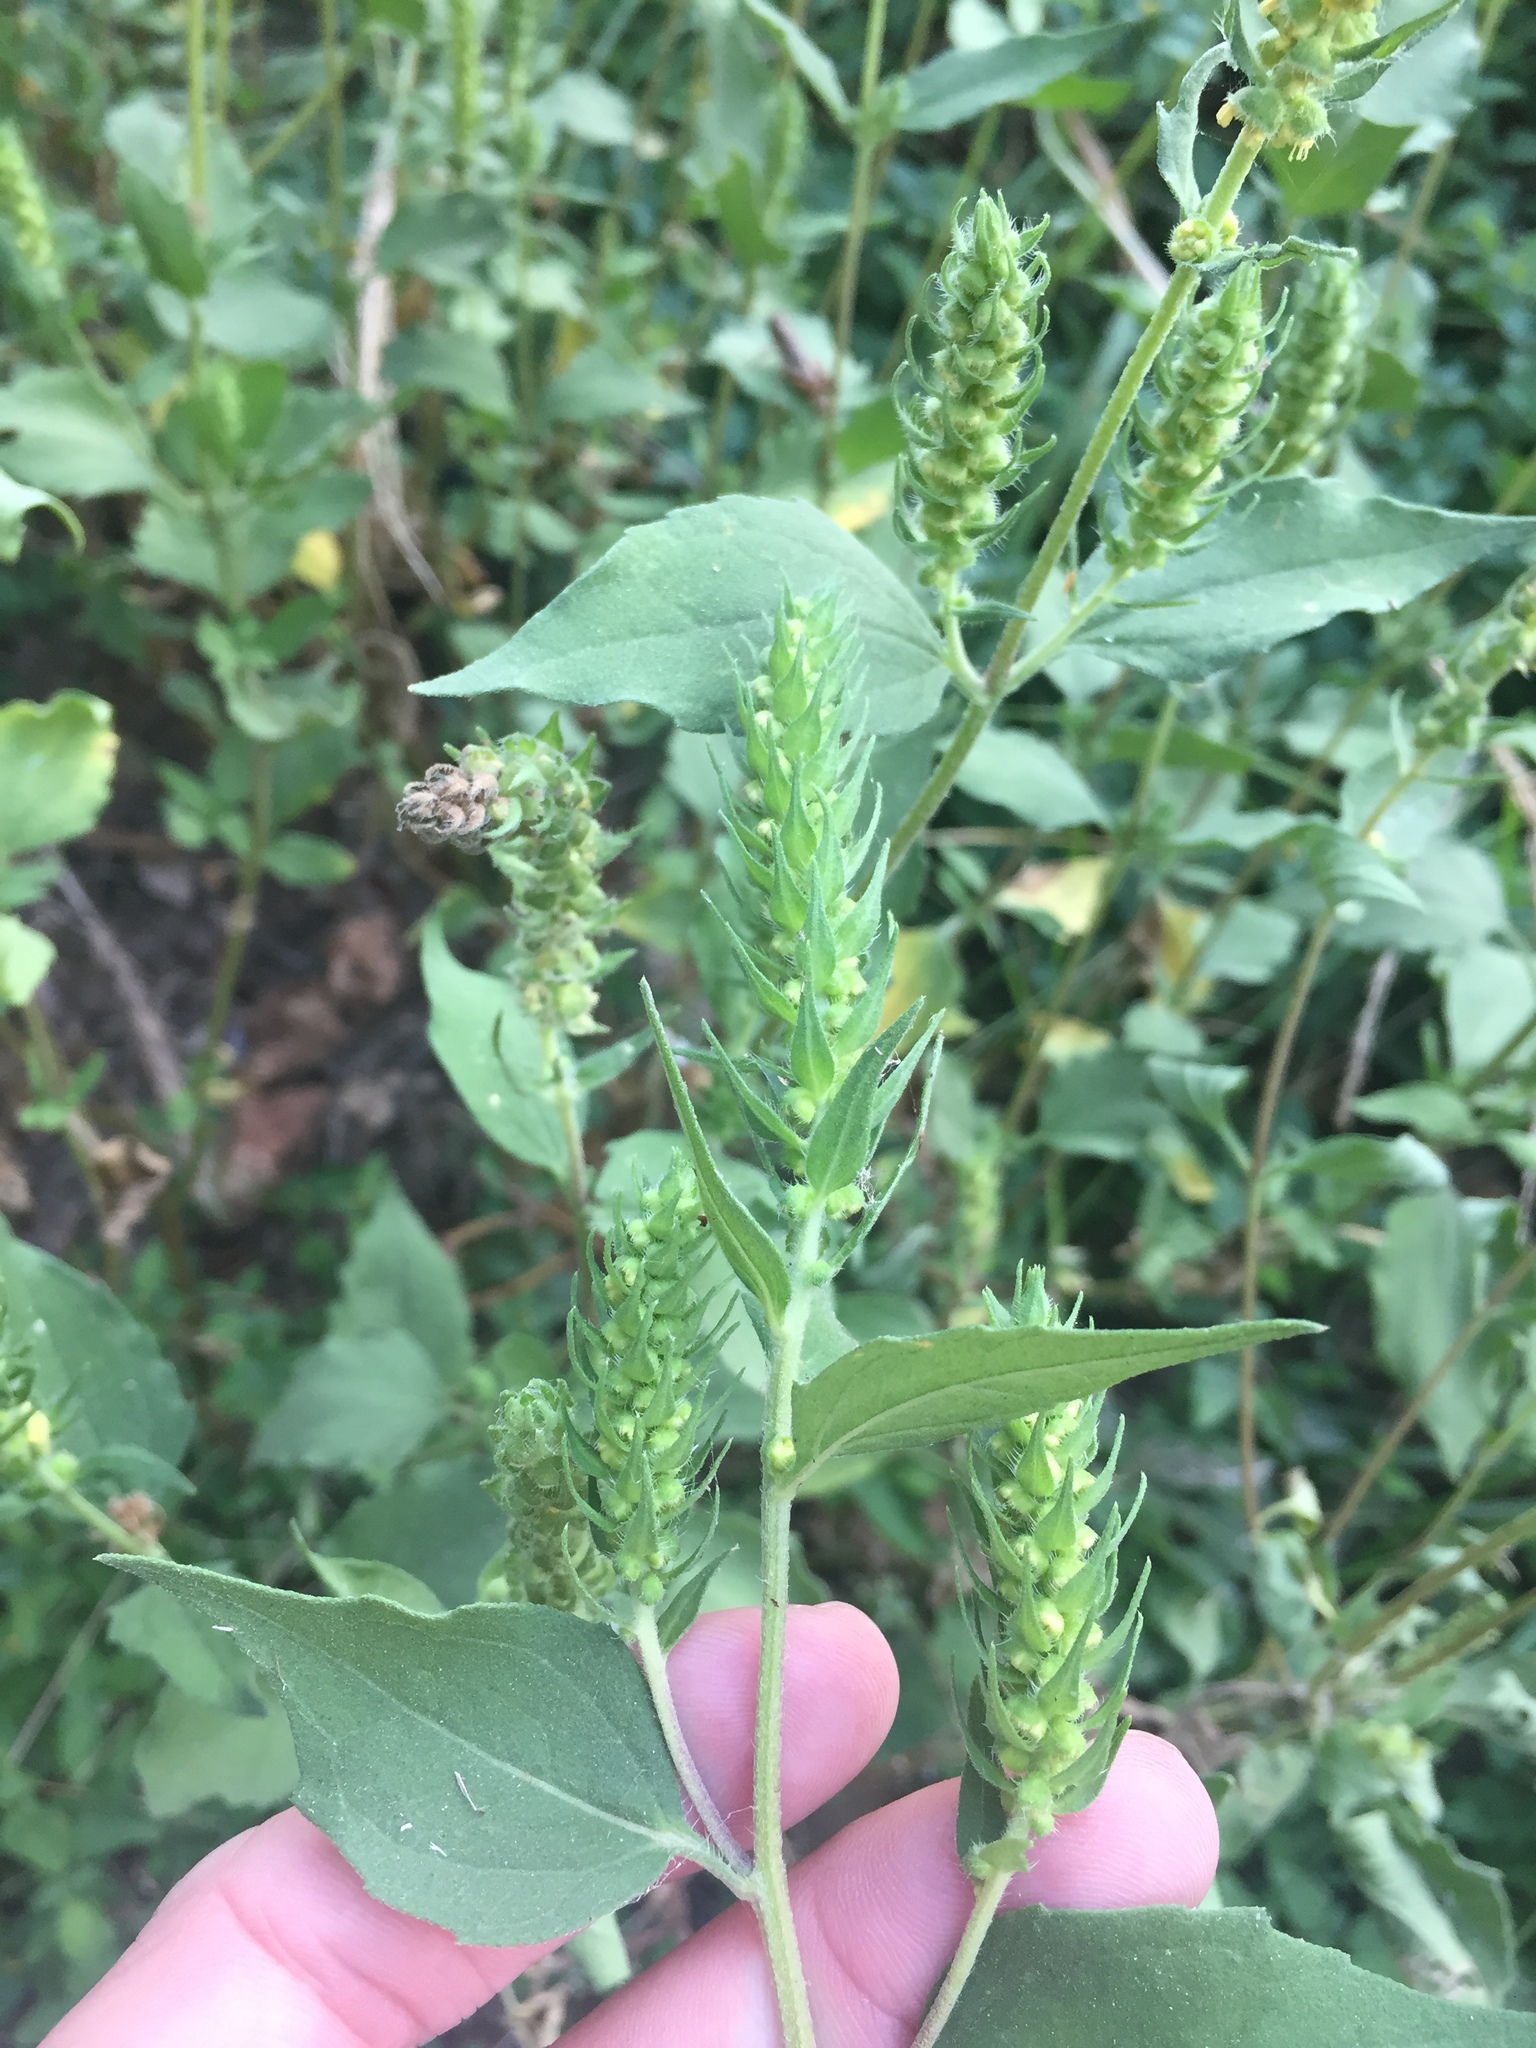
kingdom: Plantae
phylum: Tracheophyta
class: Magnoliopsida
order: Asterales
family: Asteraceae
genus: Iva
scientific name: Iva annua
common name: Marsh-elder
